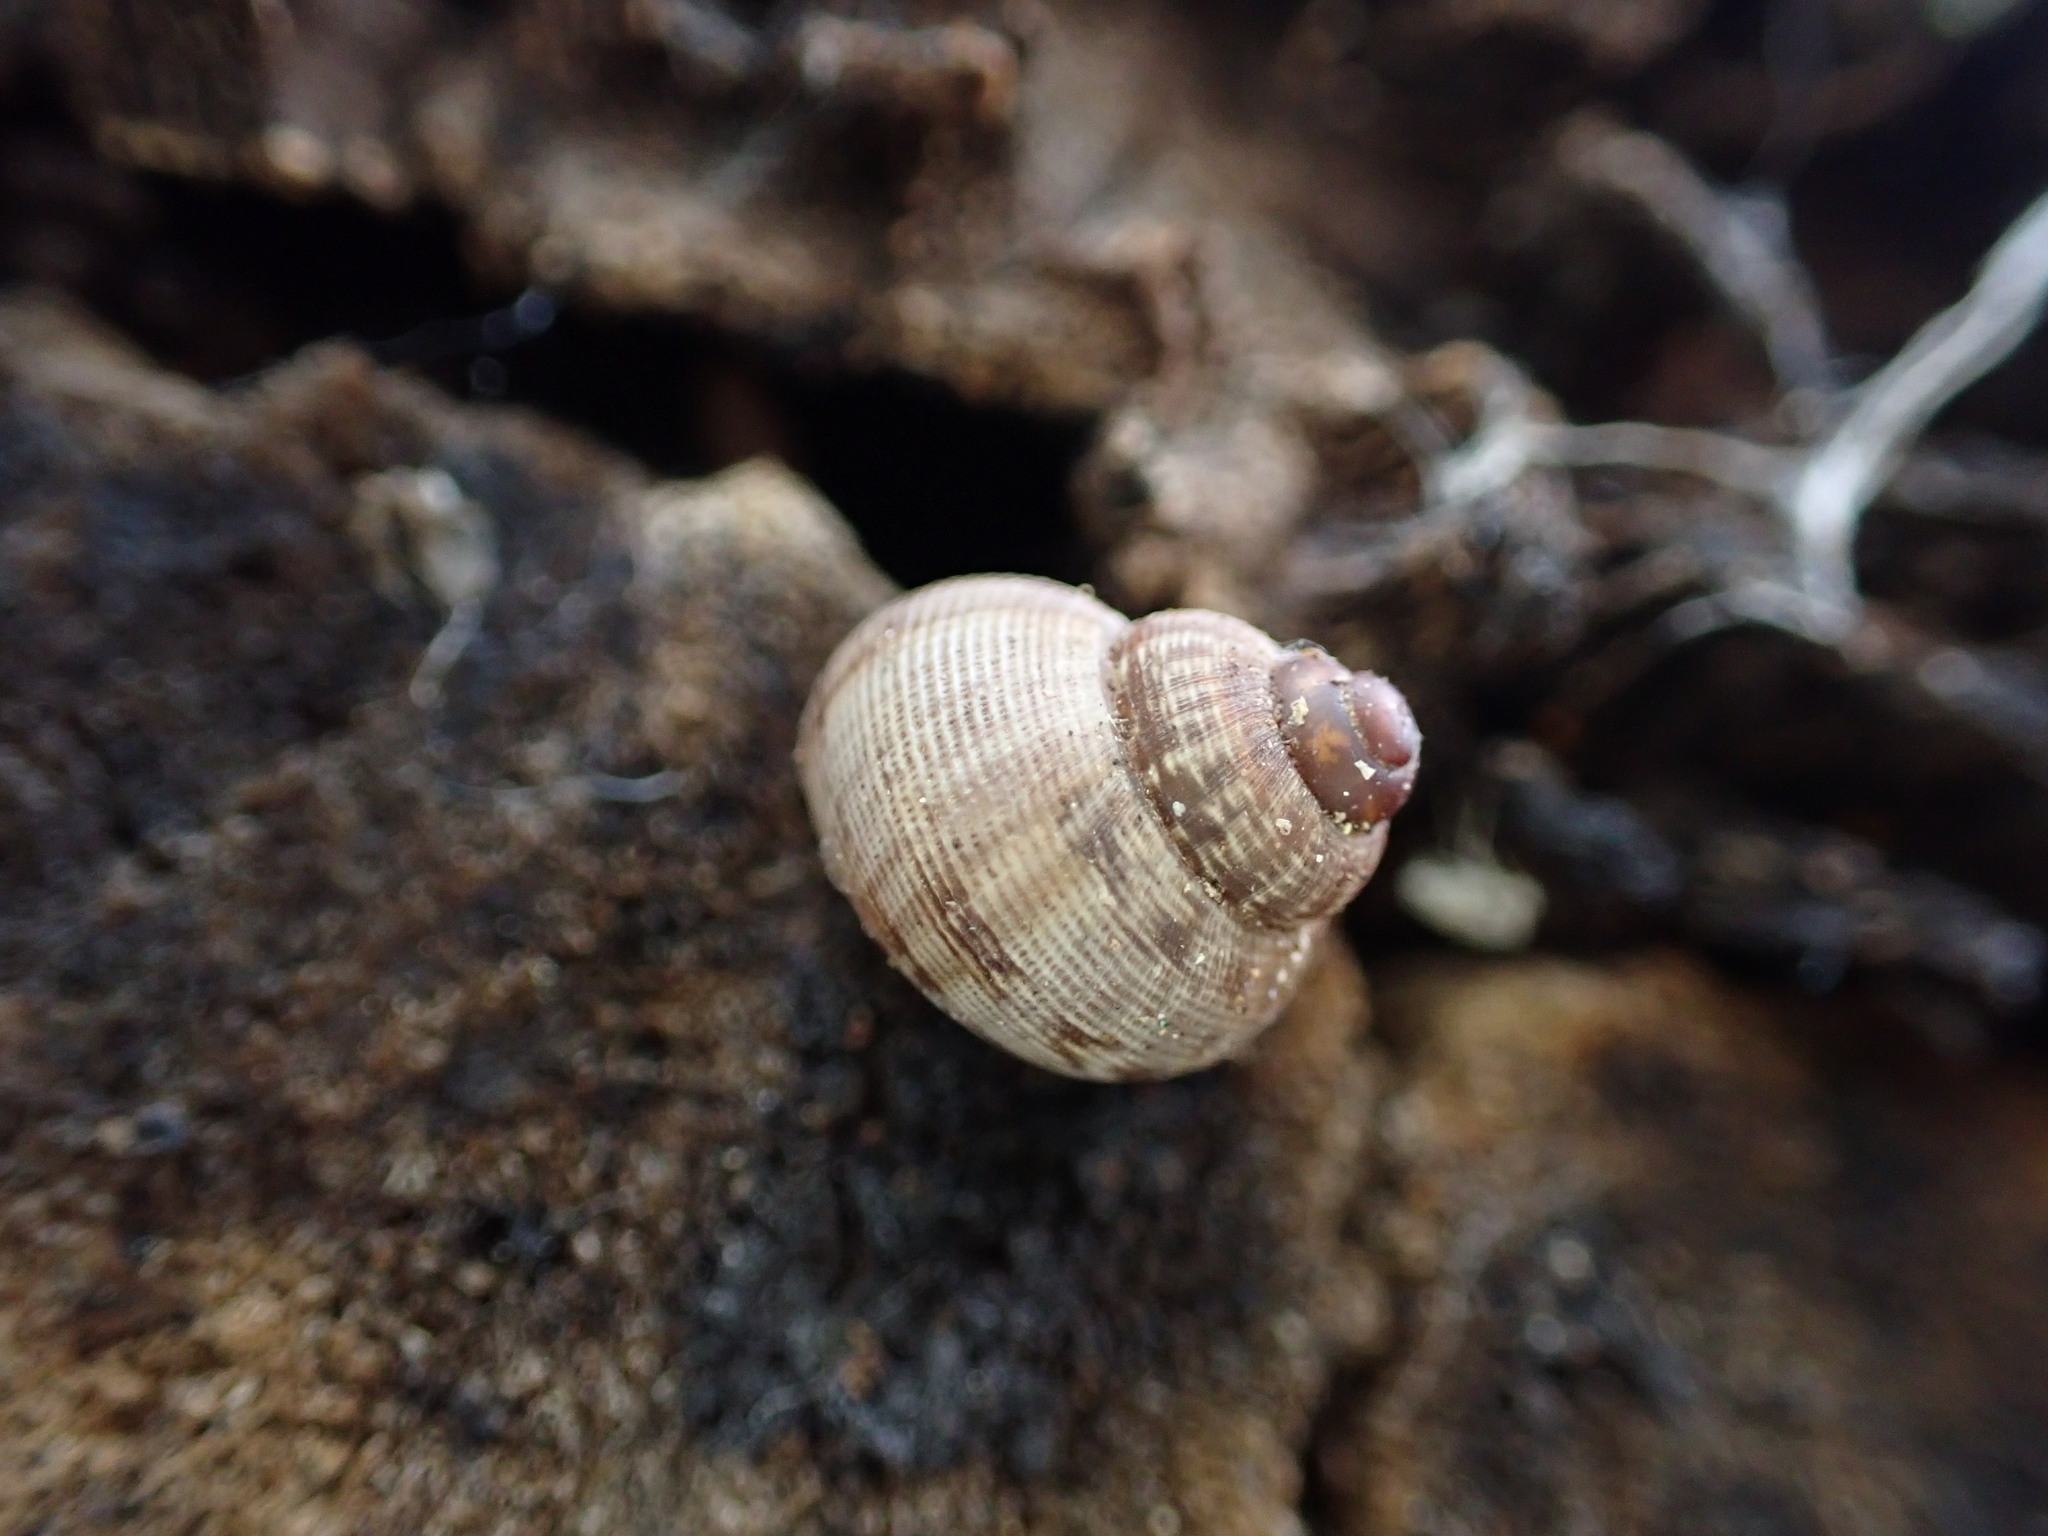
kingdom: Animalia
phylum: Mollusca
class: Gastropoda
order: Littorinimorpha
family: Pomatiidae
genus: Pomatias
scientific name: Pomatias elegans
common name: Red-mouthed snail
